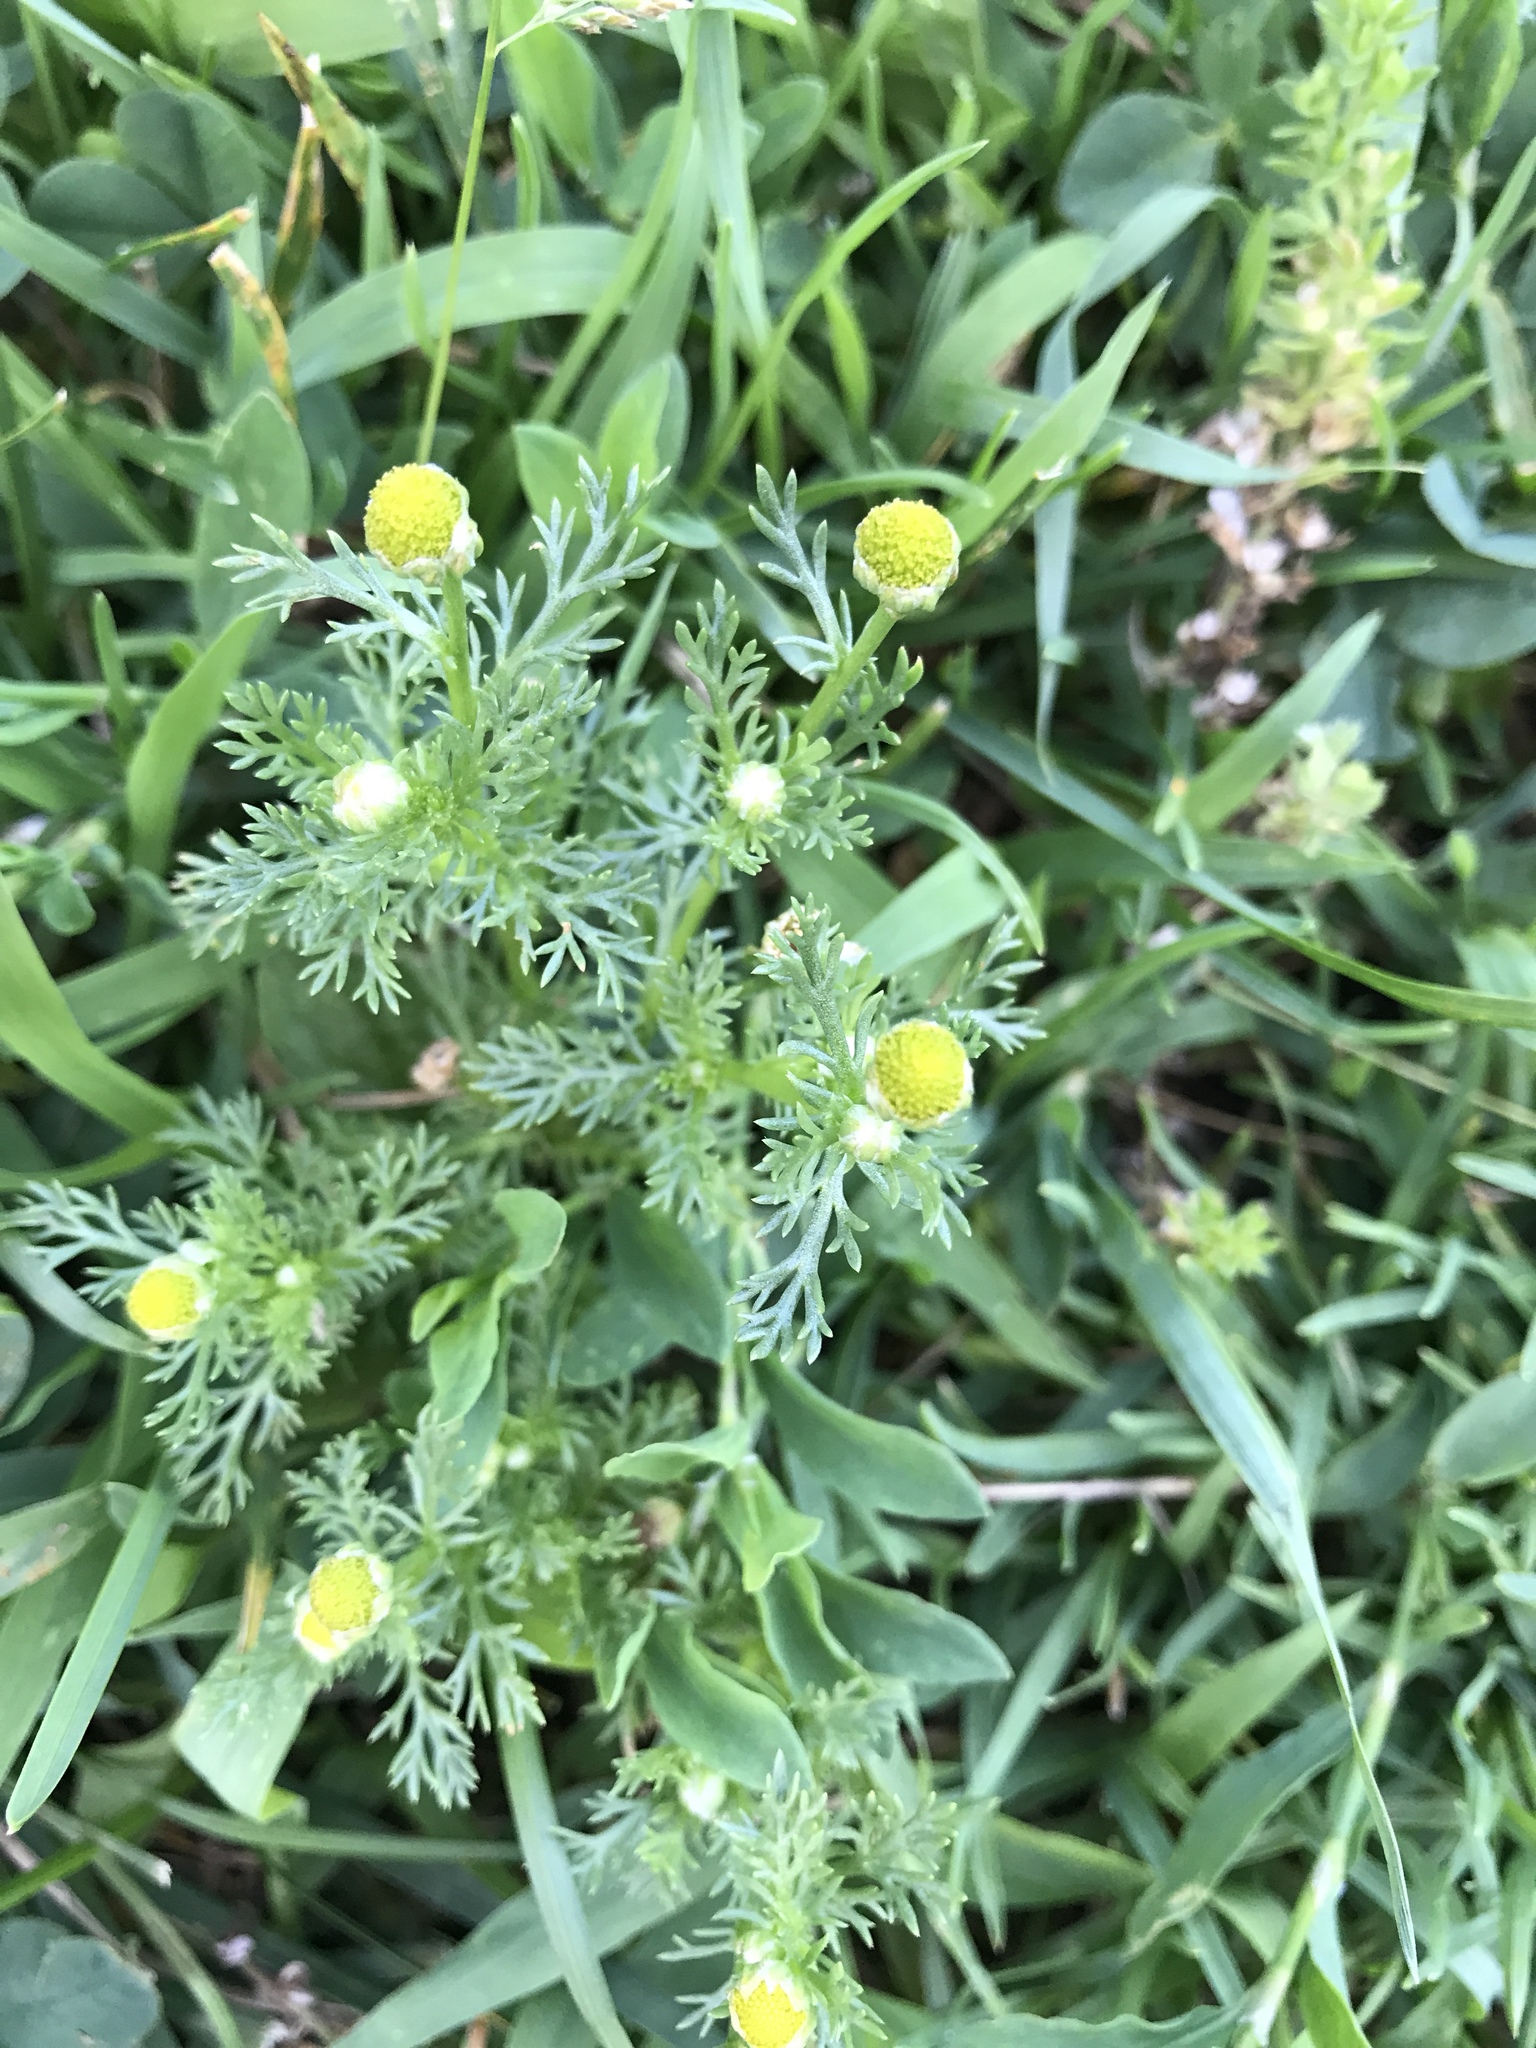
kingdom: Plantae
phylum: Tracheophyta
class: Magnoliopsida
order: Asterales
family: Asteraceae
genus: Matricaria
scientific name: Matricaria discoidea
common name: Disc mayweed
